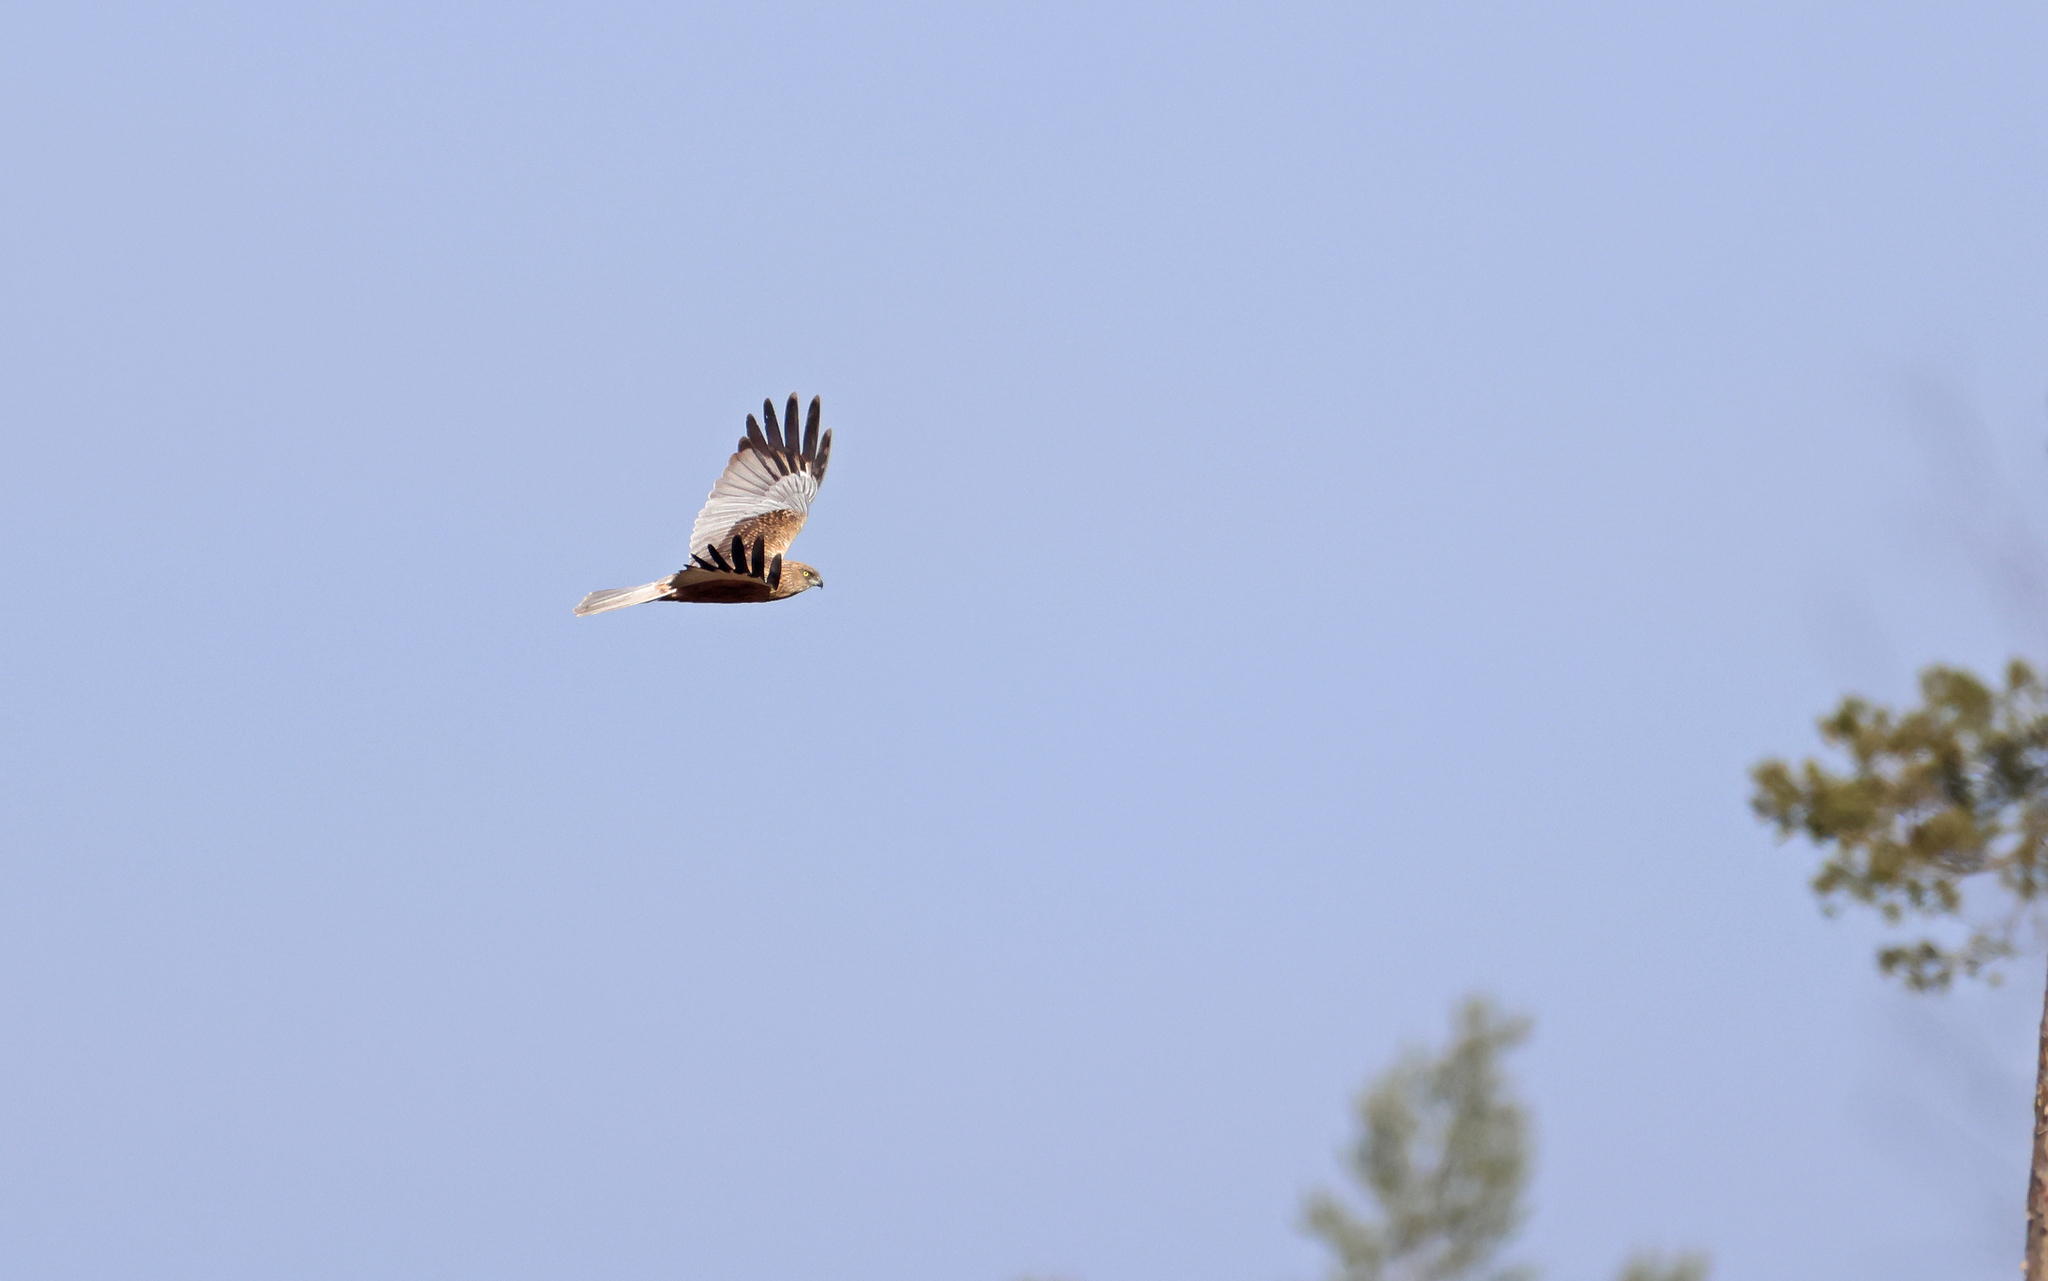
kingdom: Animalia
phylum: Chordata
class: Aves
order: Accipitriformes
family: Accipitridae
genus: Circus
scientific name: Circus aeruginosus
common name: Western marsh harrier
